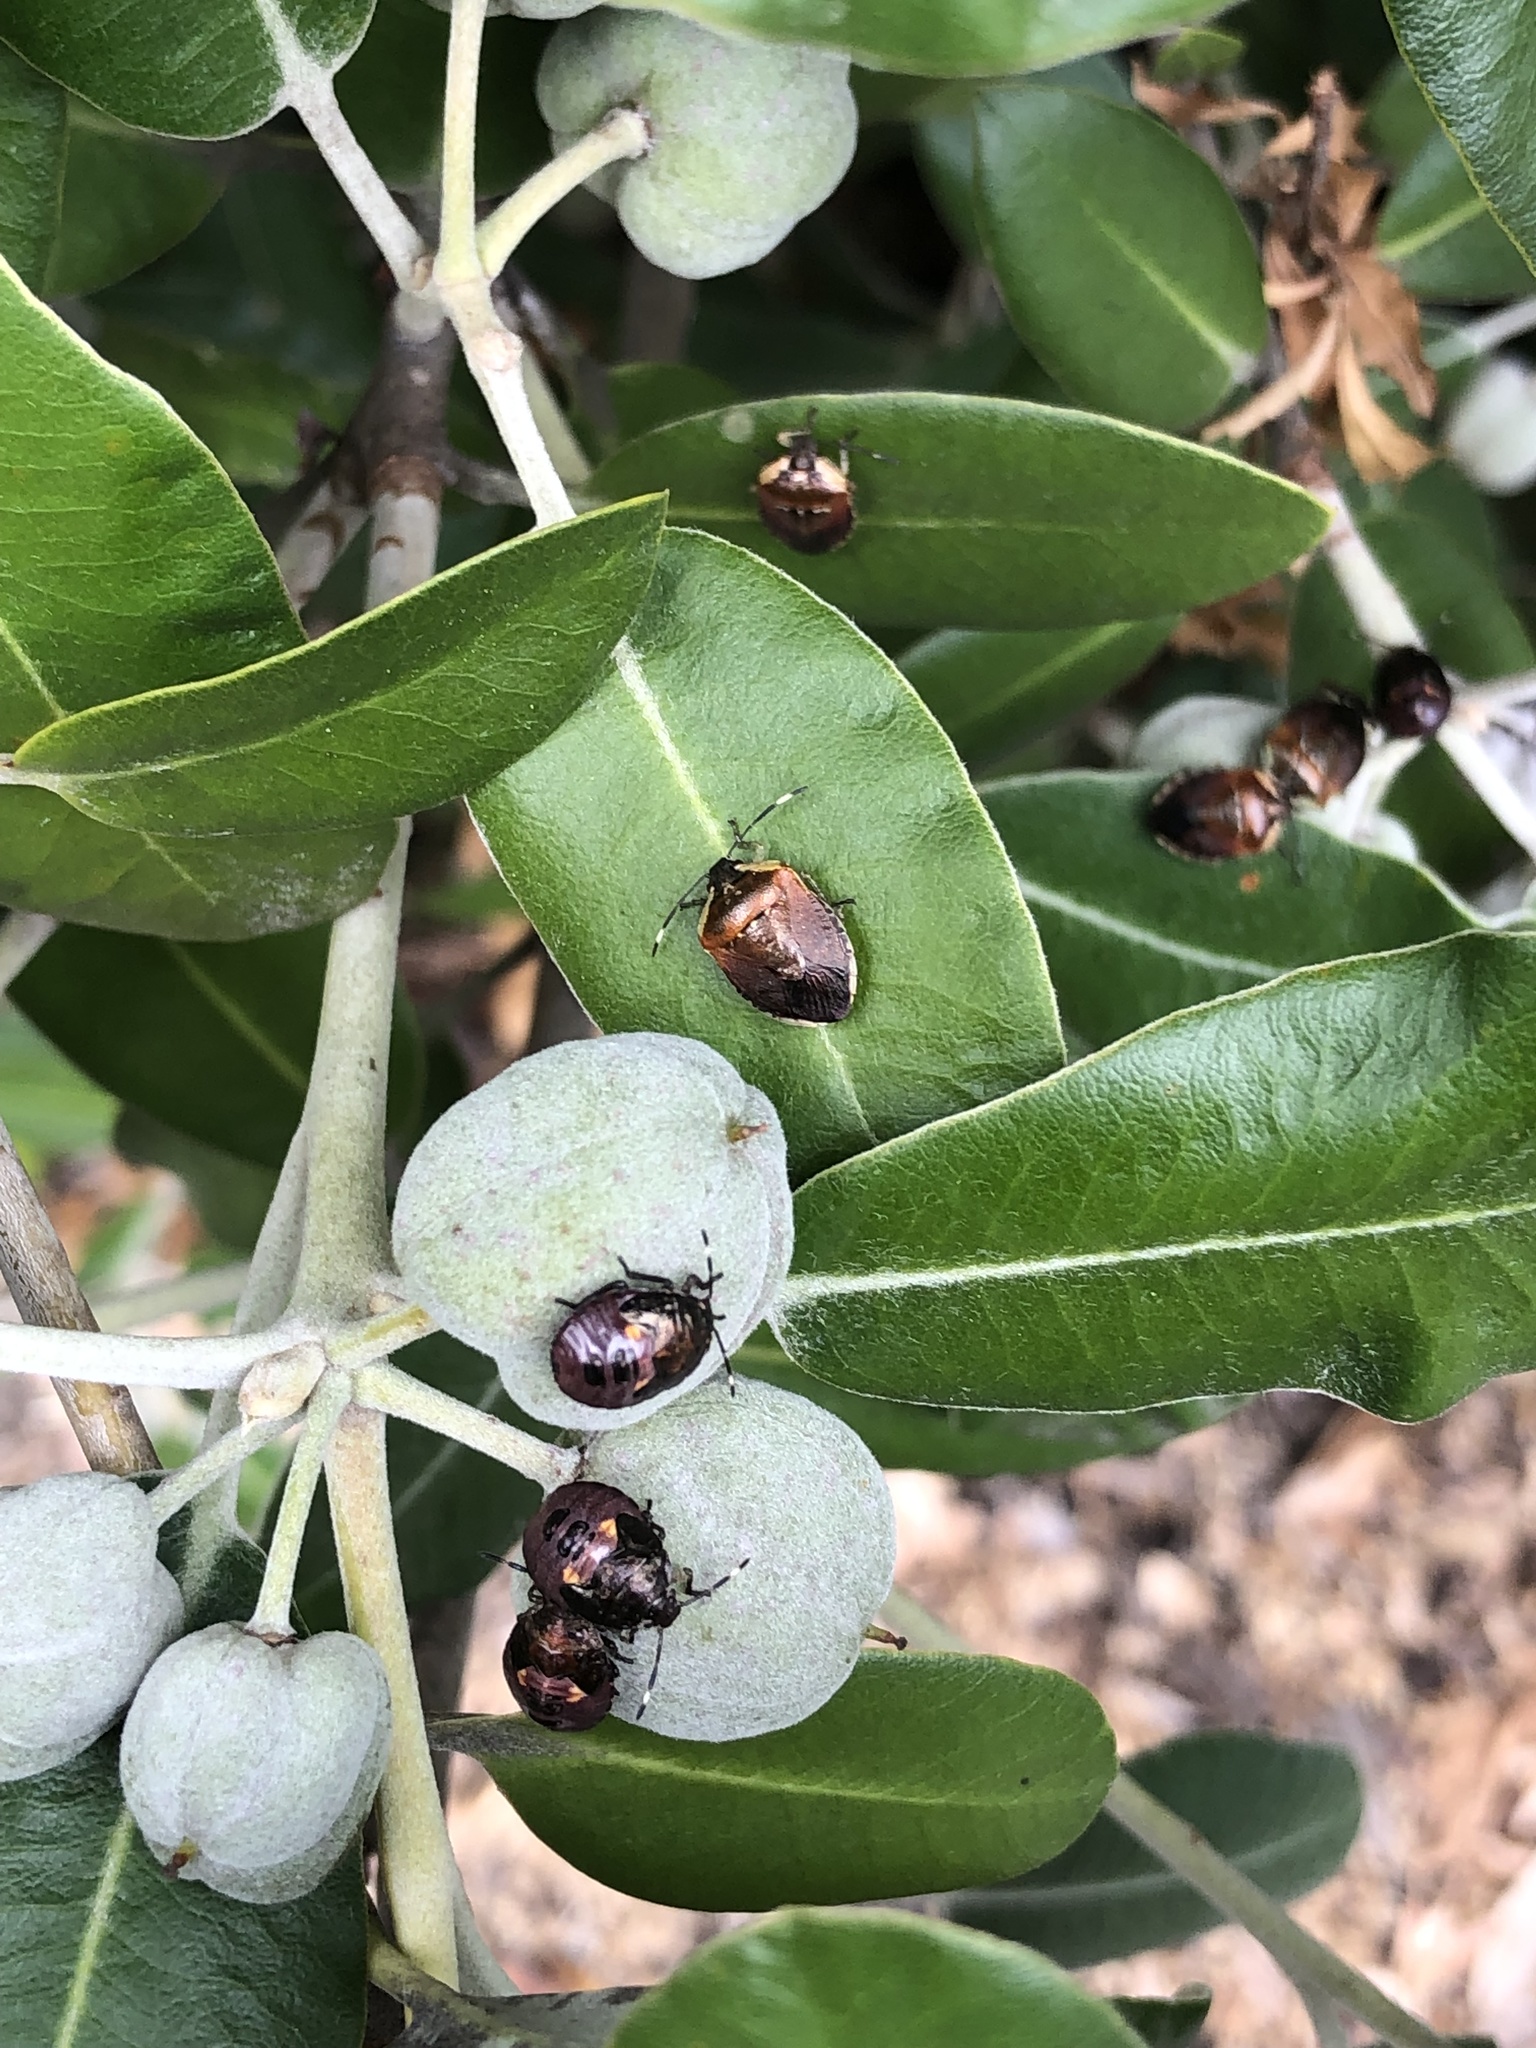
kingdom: Animalia
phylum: Arthropoda
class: Insecta
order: Hemiptera
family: Pentatomidae
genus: Monteithiella
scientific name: Monteithiella
